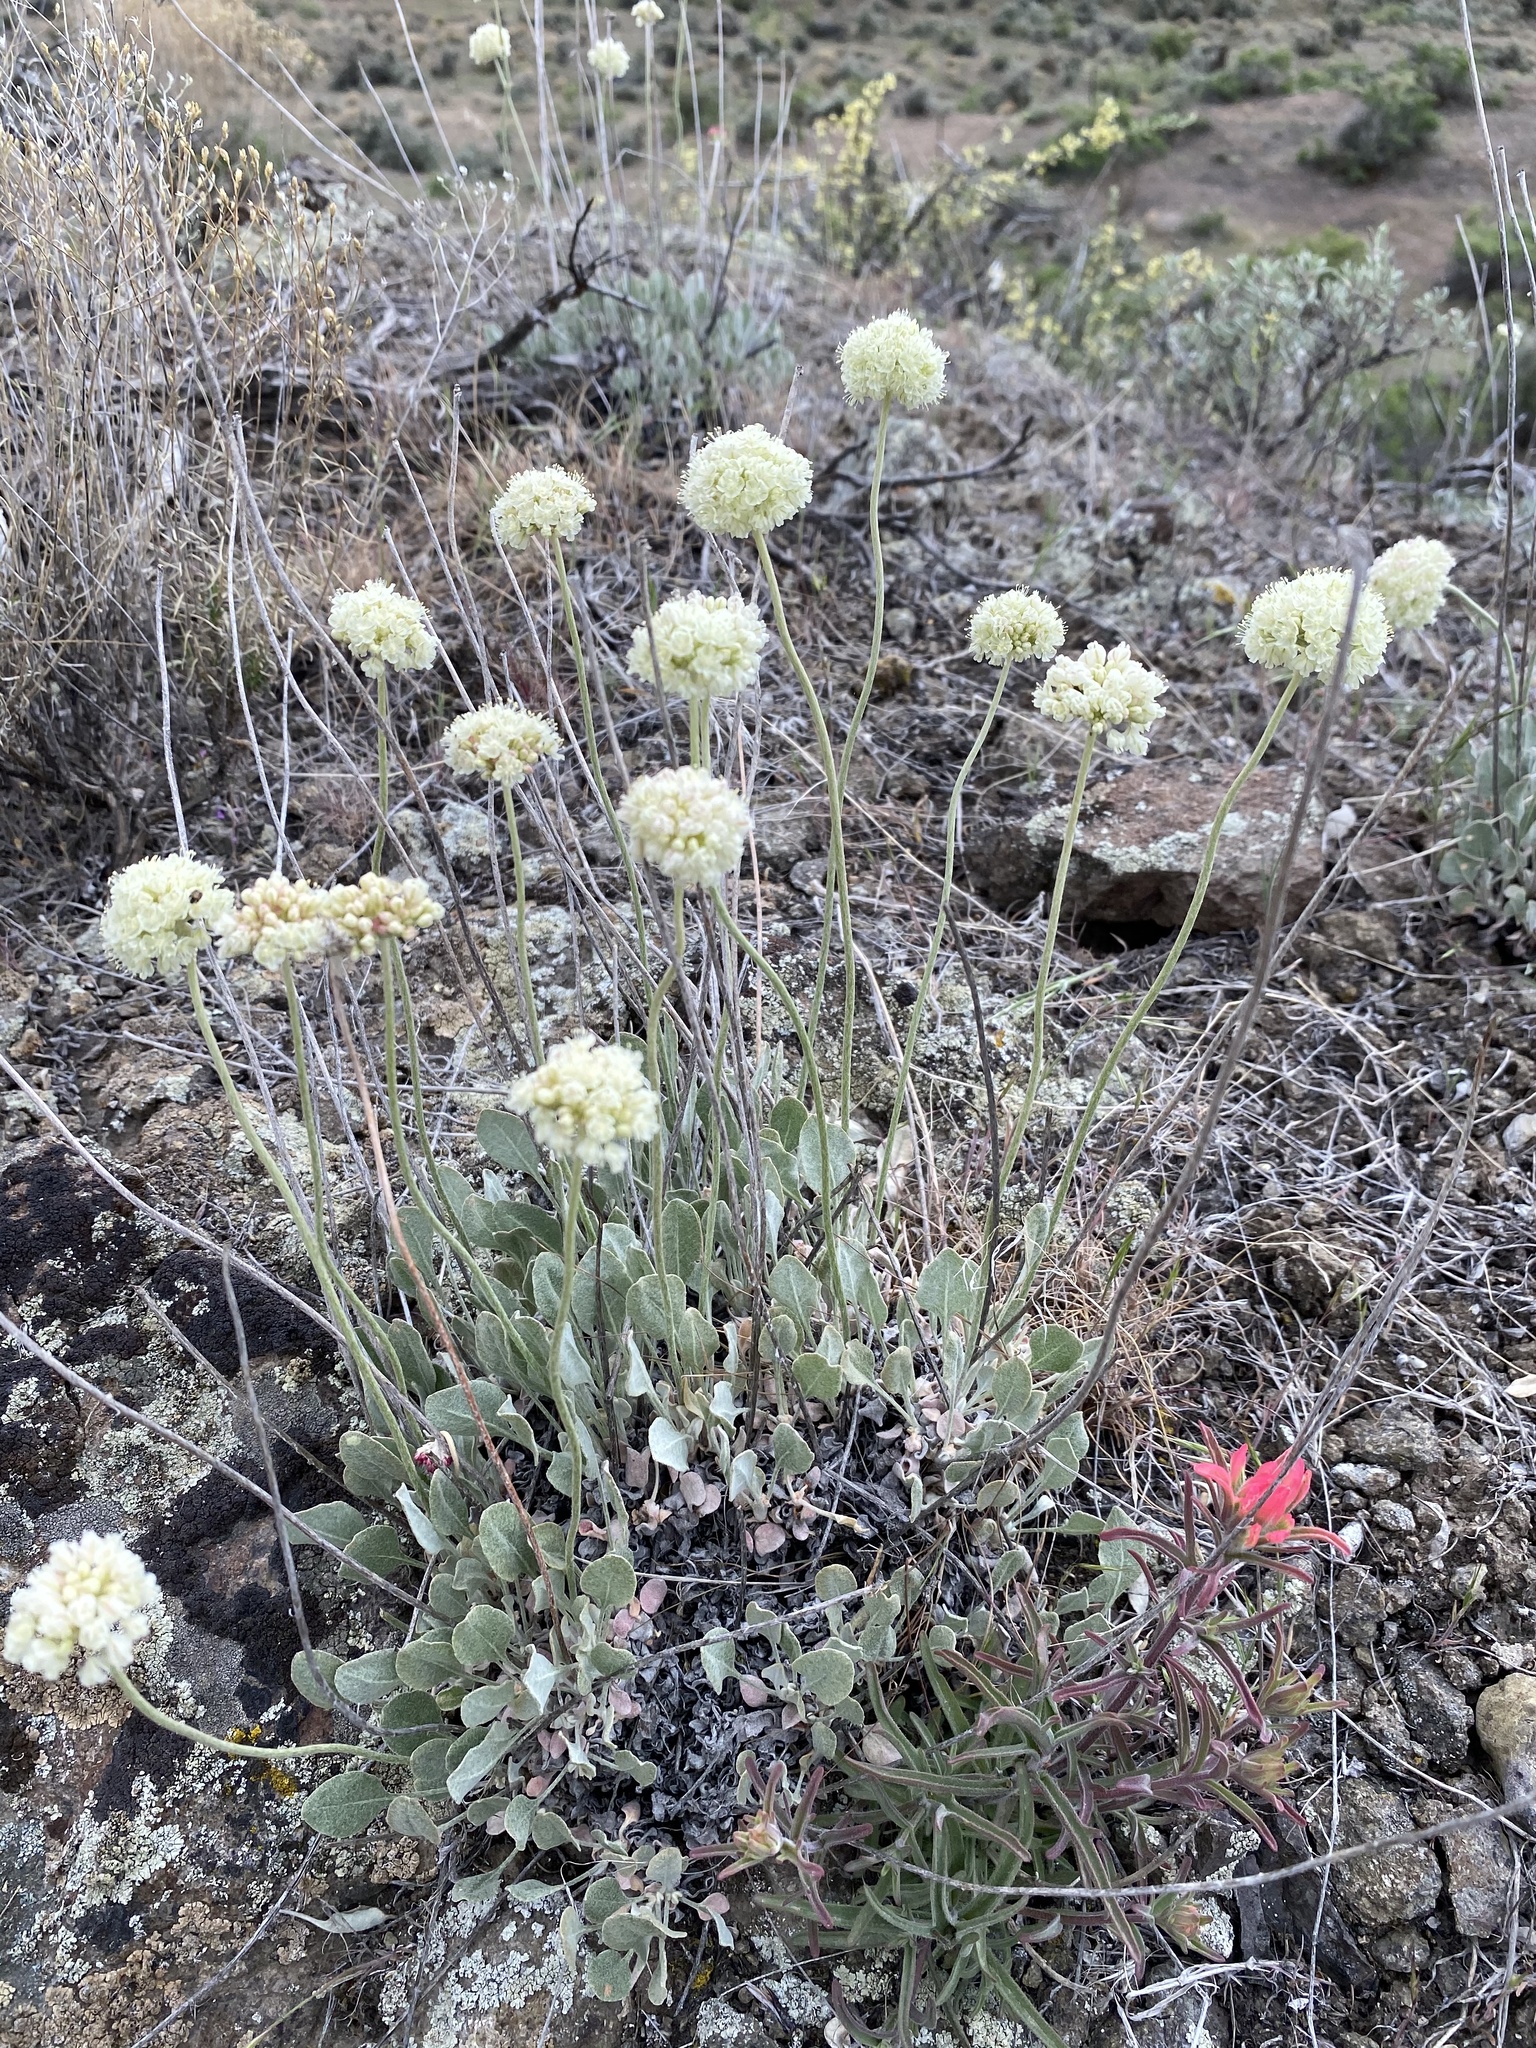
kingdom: Plantae
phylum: Tracheophyta
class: Magnoliopsida
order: Caryophyllales
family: Polygonaceae
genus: Eriogonum
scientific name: Eriogonum ovalifolium
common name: Cushion buckwheat
